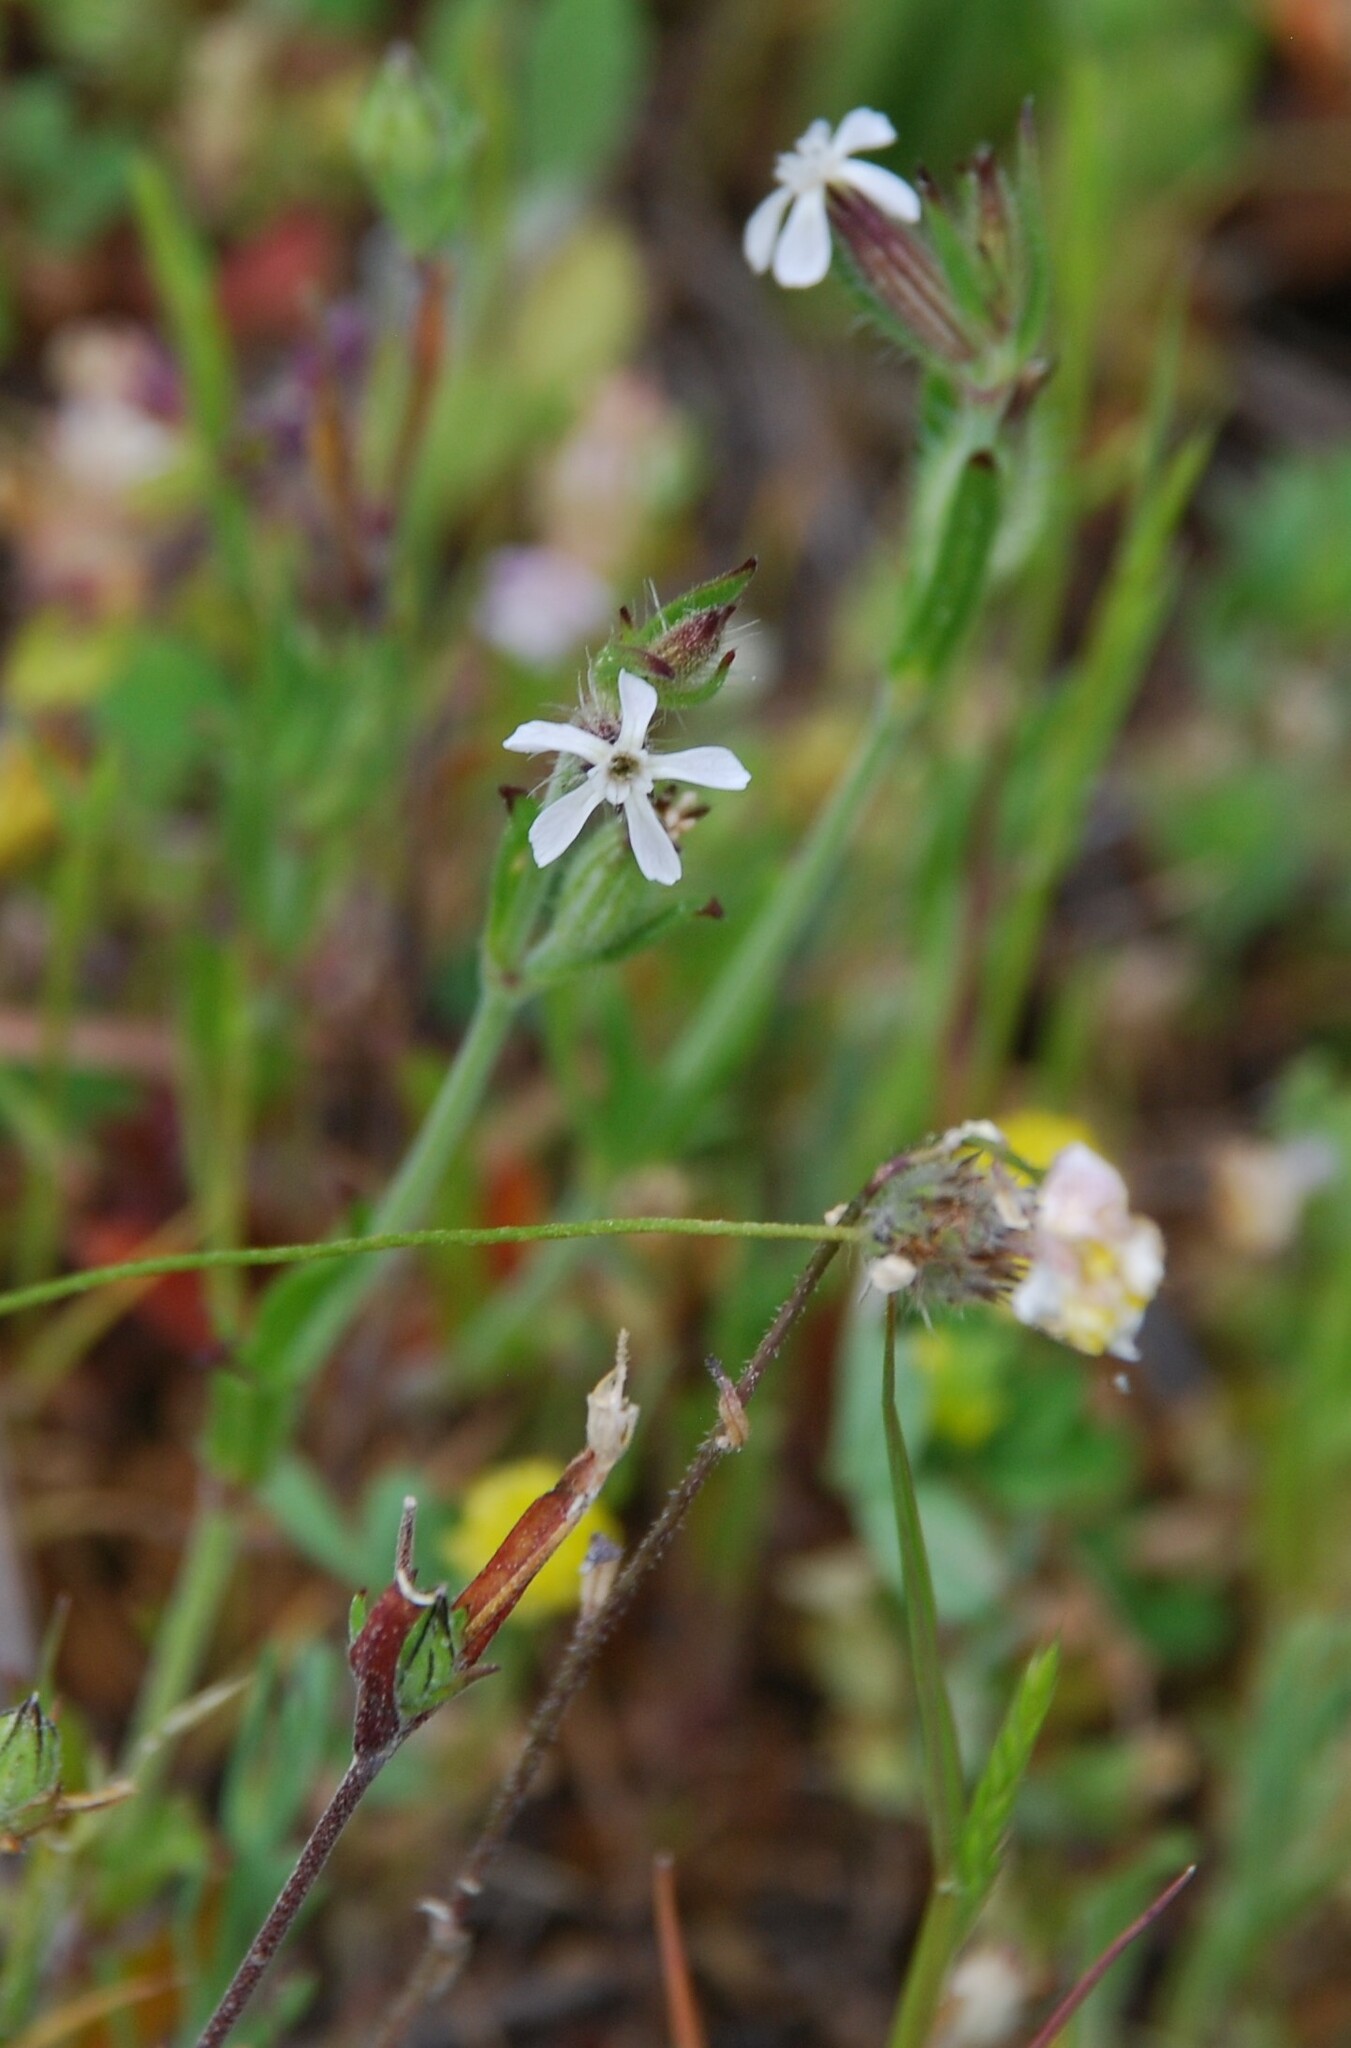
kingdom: Plantae
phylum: Tracheophyta
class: Magnoliopsida
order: Caryophyllales
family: Caryophyllaceae
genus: Silene
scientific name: Silene gallica
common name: Small-flowered catchfly
